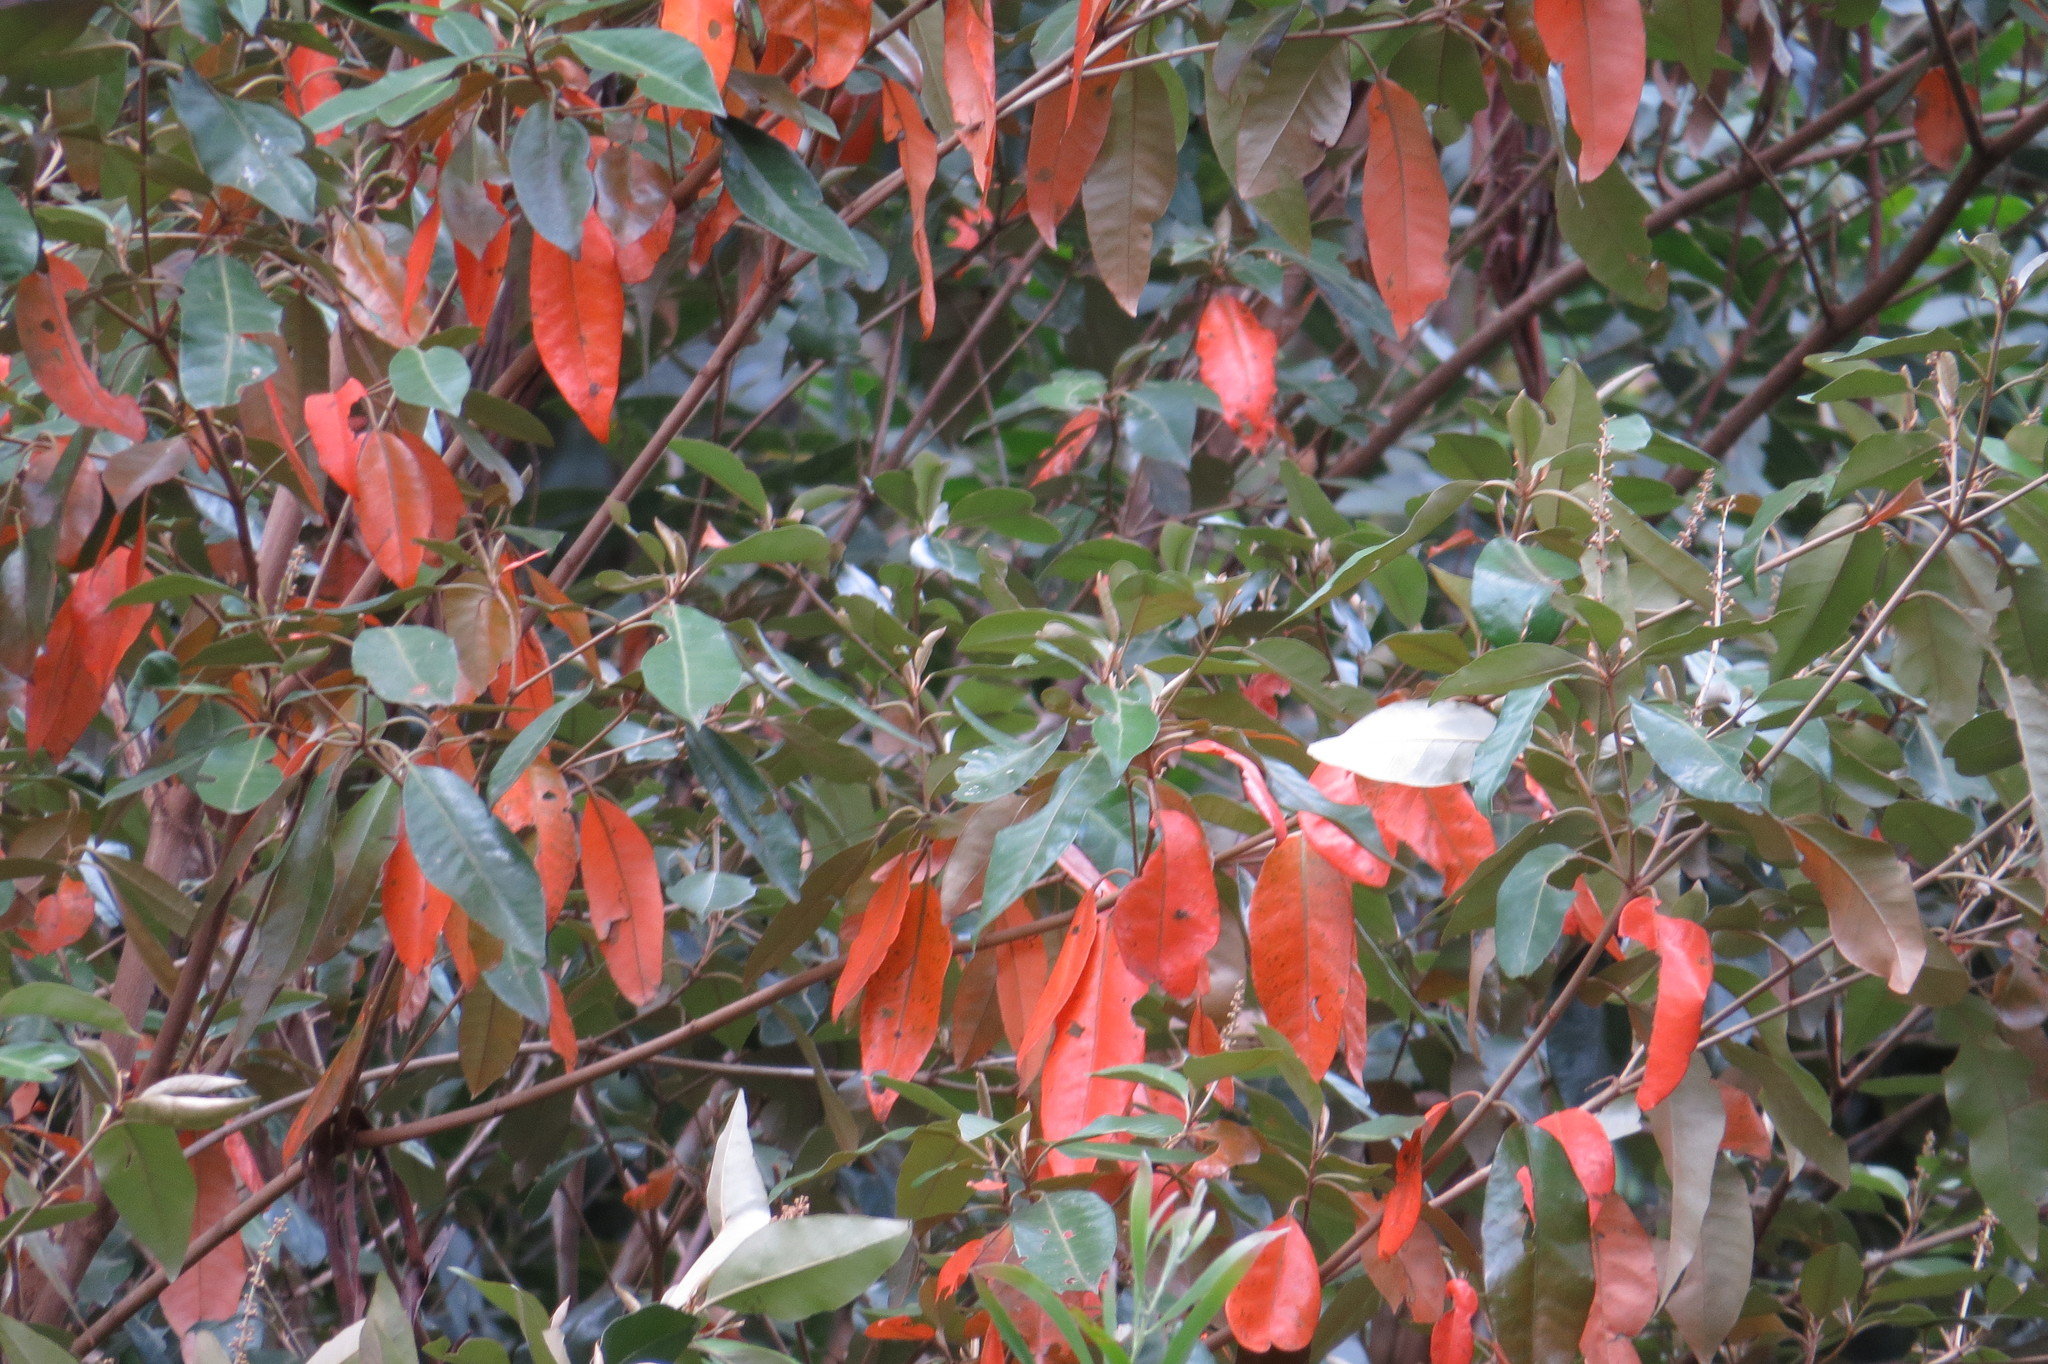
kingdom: Plantae
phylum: Tracheophyta
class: Magnoliopsida
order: Malpighiales
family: Euphorbiaceae
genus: Croton
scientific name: Croton insularis
